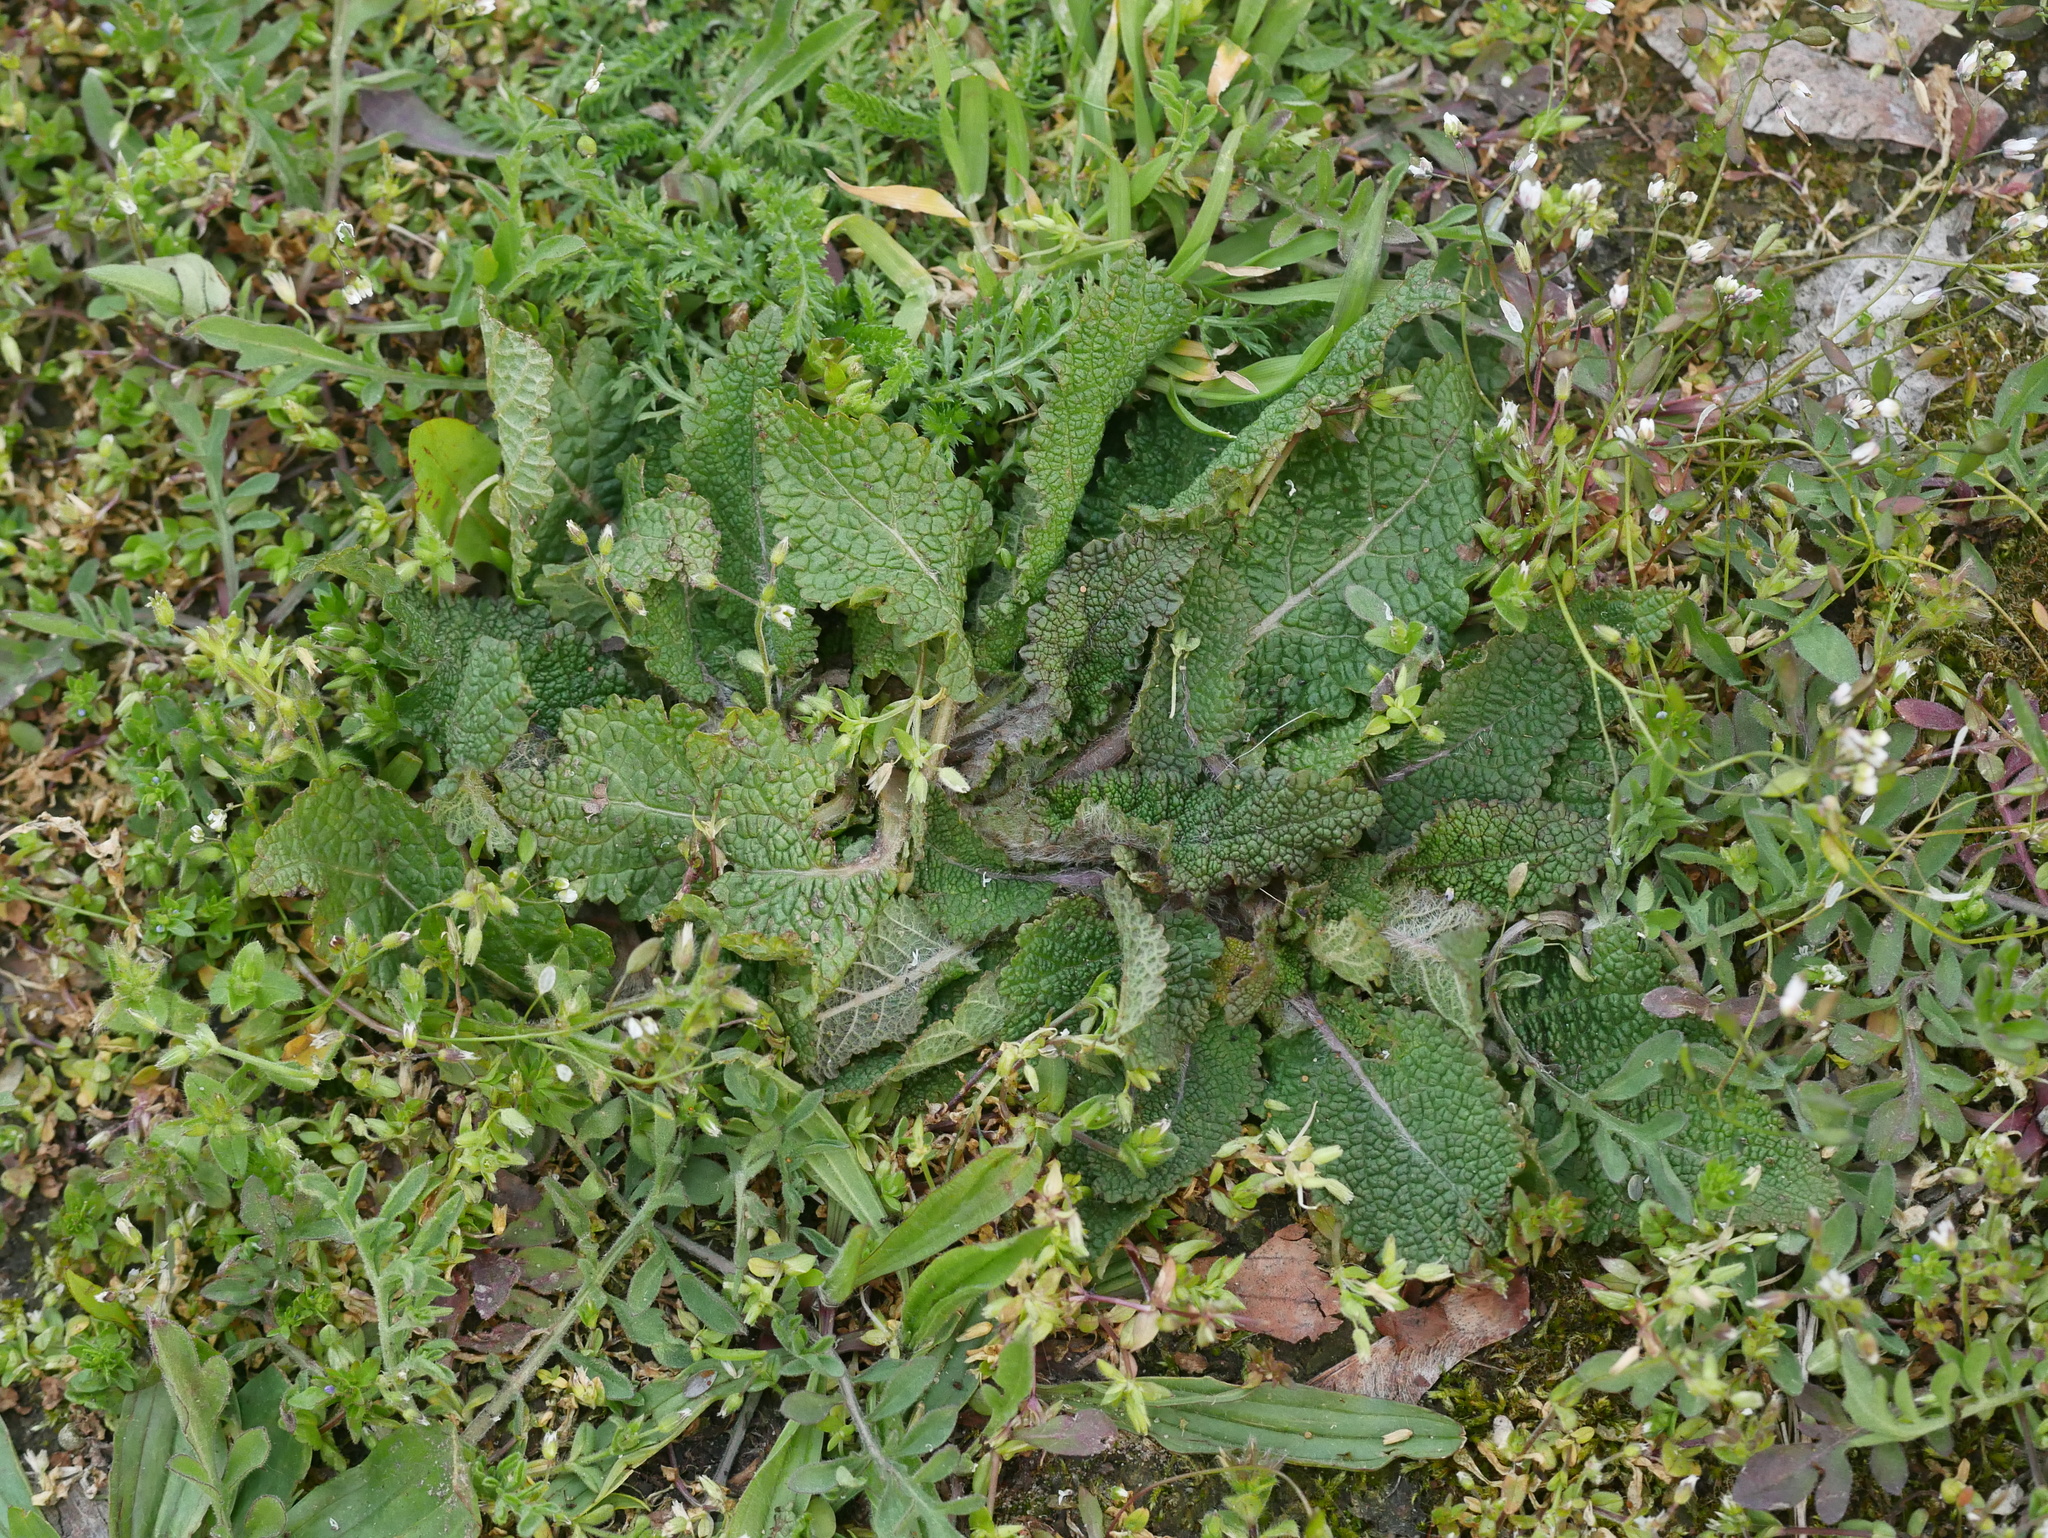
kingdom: Plantae
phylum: Tracheophyta
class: Magnoliopsida
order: Lamiales
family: Lamiaceae
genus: Salvia
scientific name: Salvia pratensis
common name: Meadow sage
